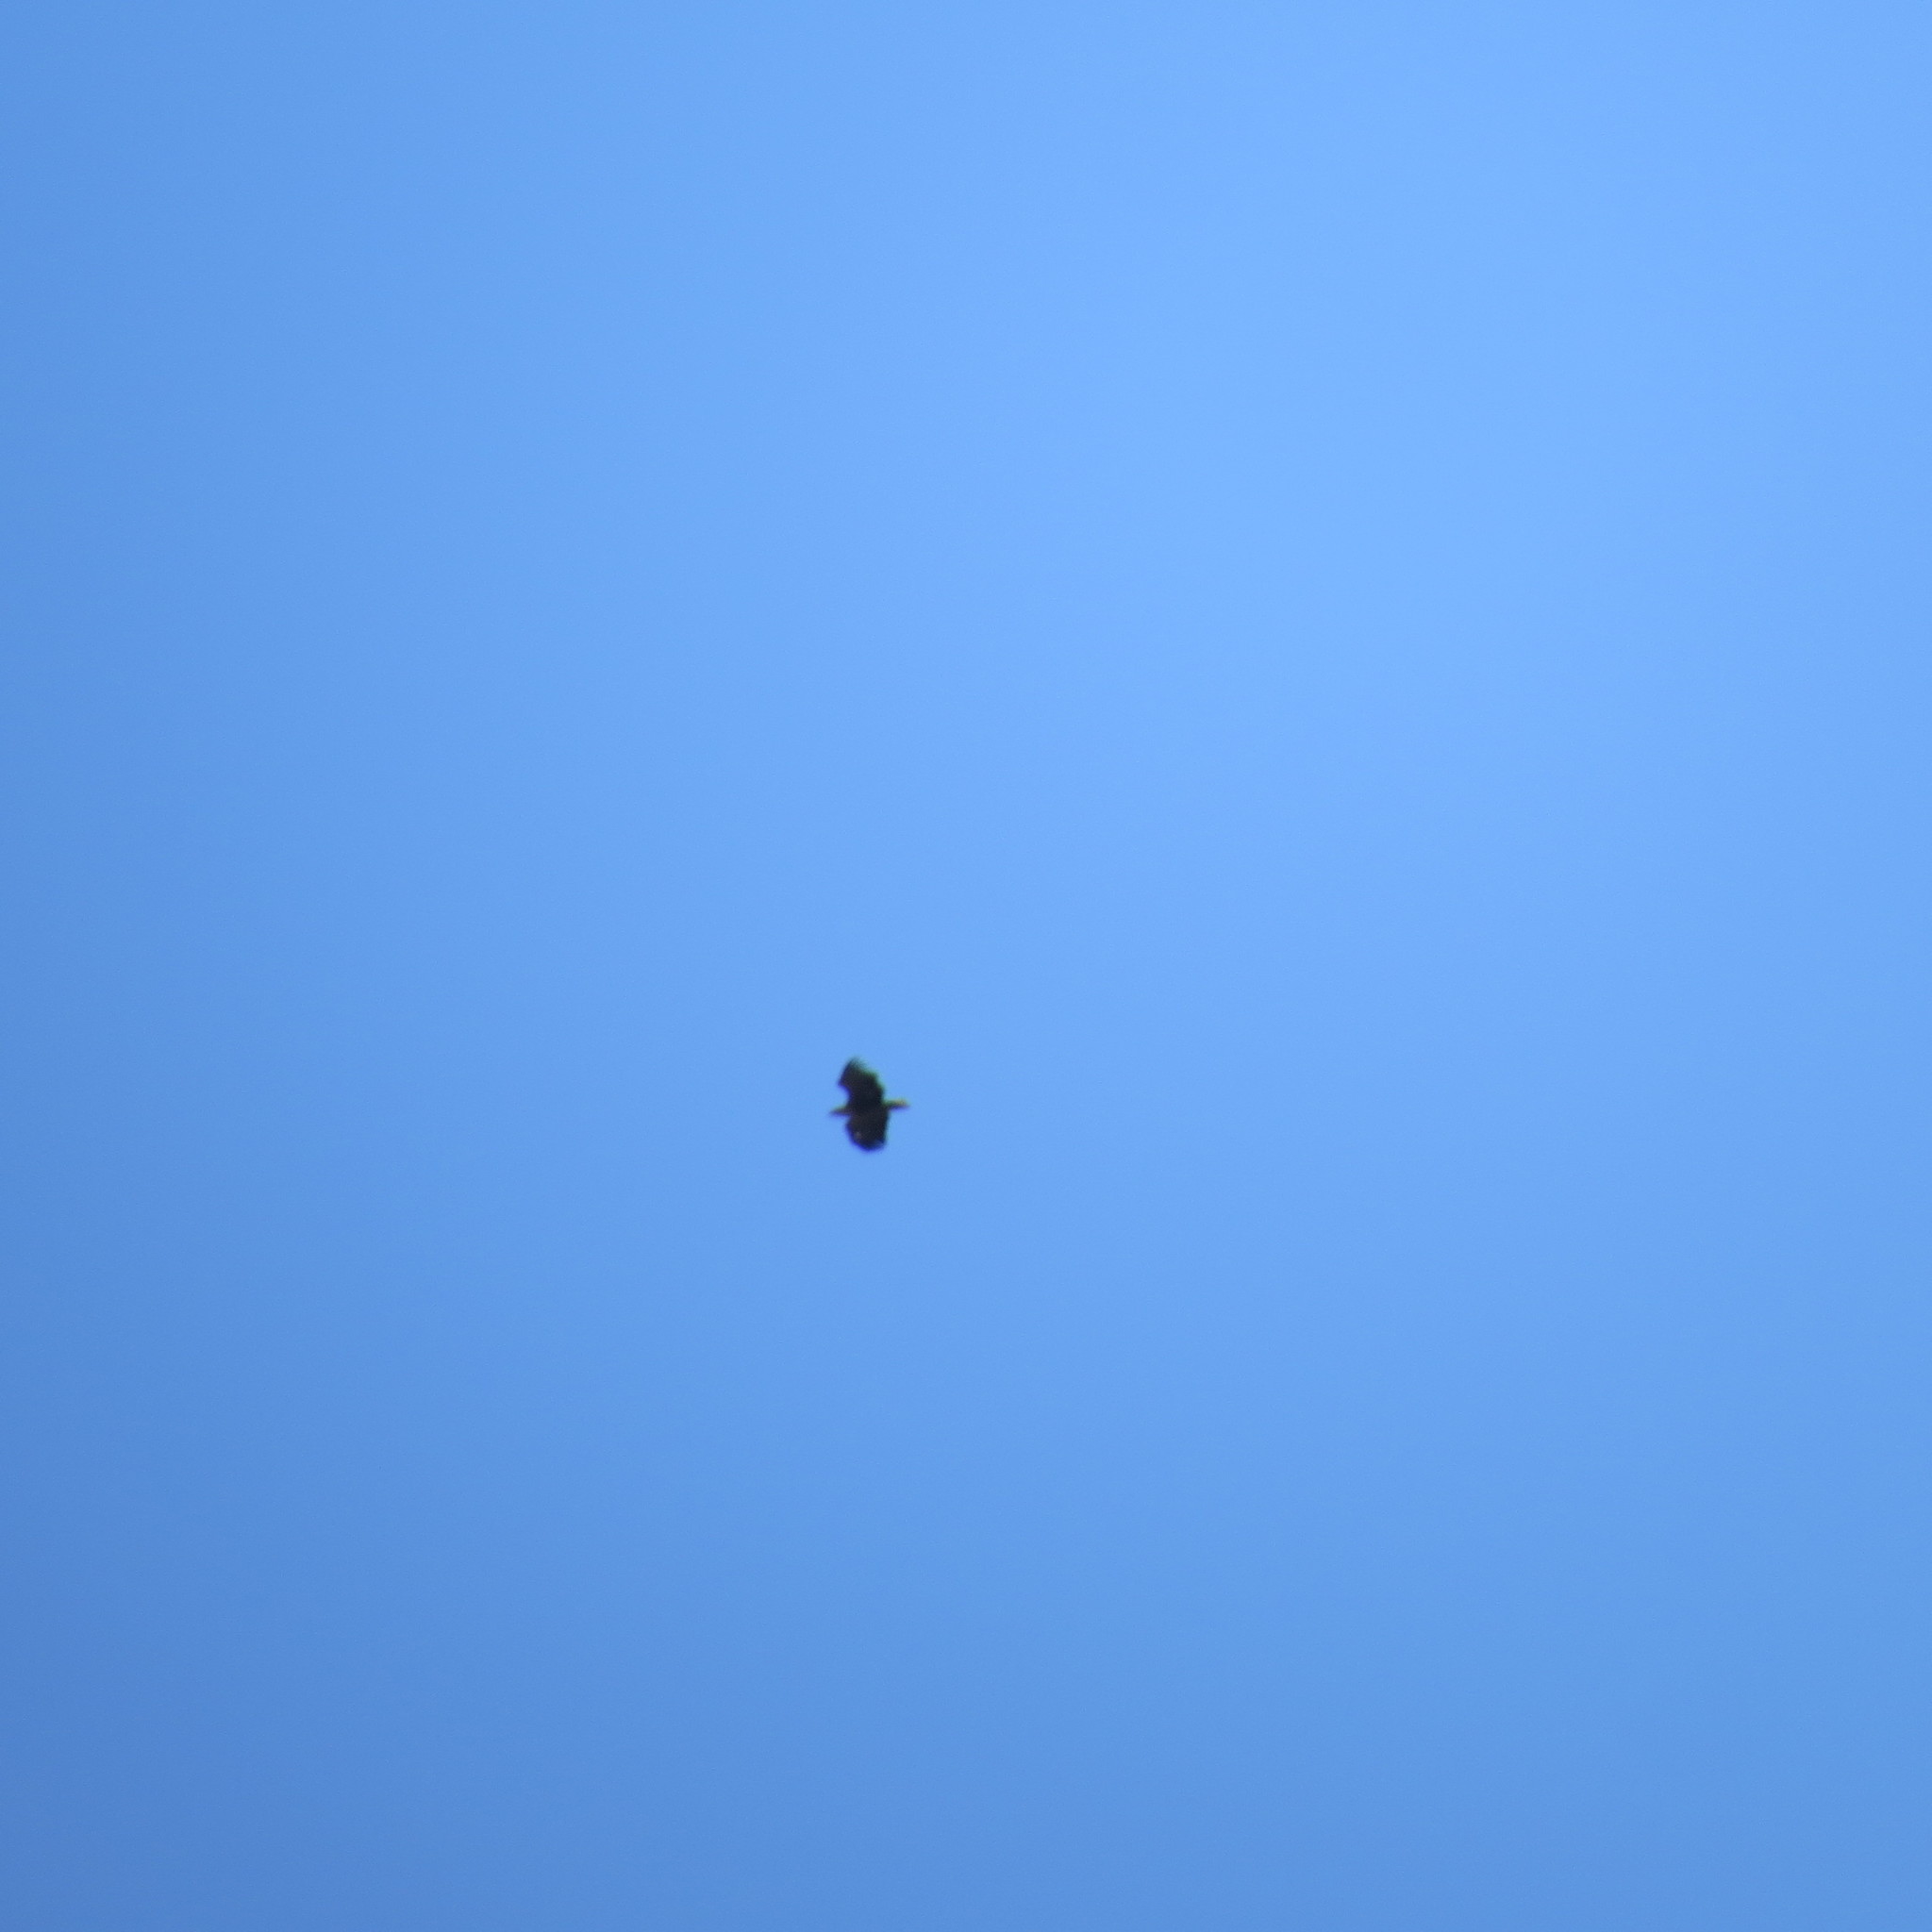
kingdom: Animalia
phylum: Chordata
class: Aves
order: Accipitriformes
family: Accipitridae
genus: Haliaeetus
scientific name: Haliaeetus albicilla
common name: White-tailed eagle
